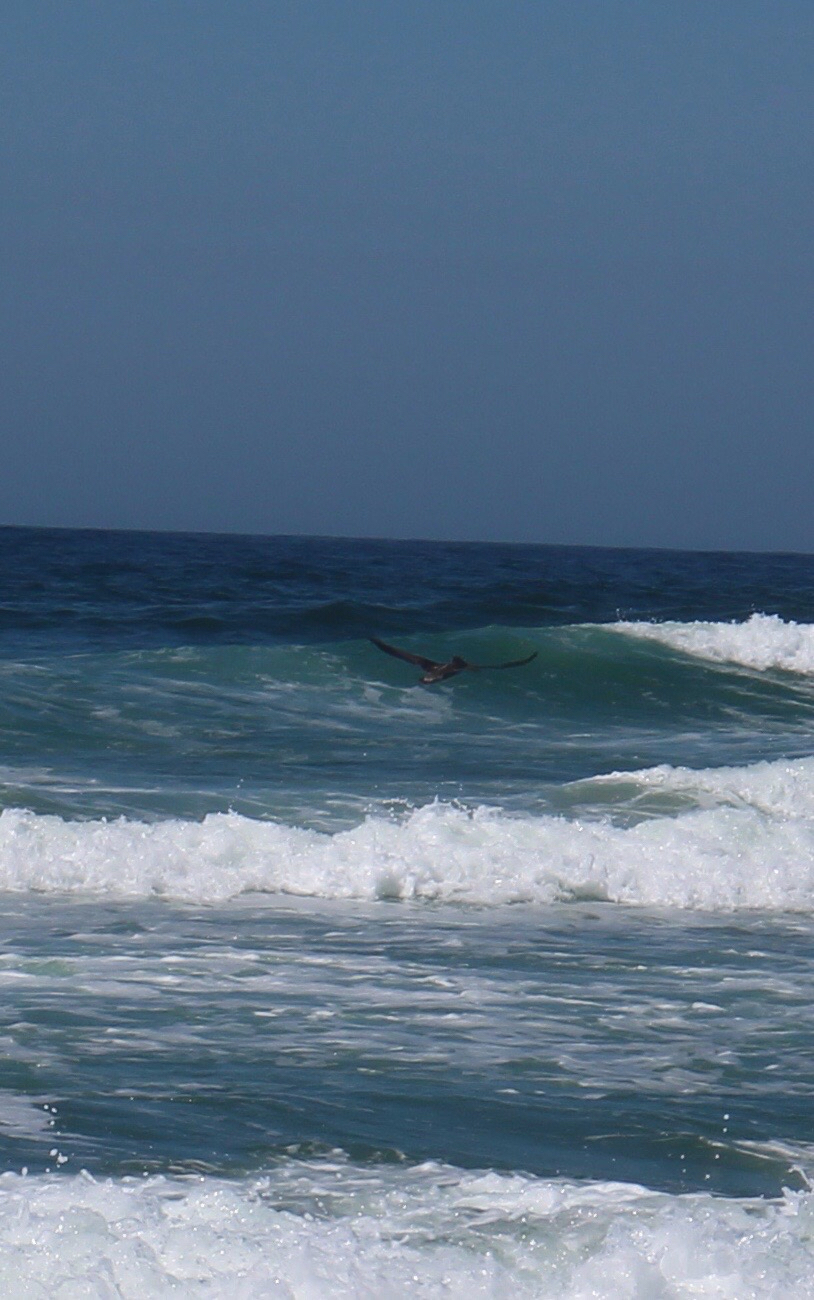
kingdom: Animalia
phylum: Chordata
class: Aves
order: Pelecaniformes
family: Pelecanidae
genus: Pelecanus
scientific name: Pelecanus occidentalis
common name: Brown pelican
